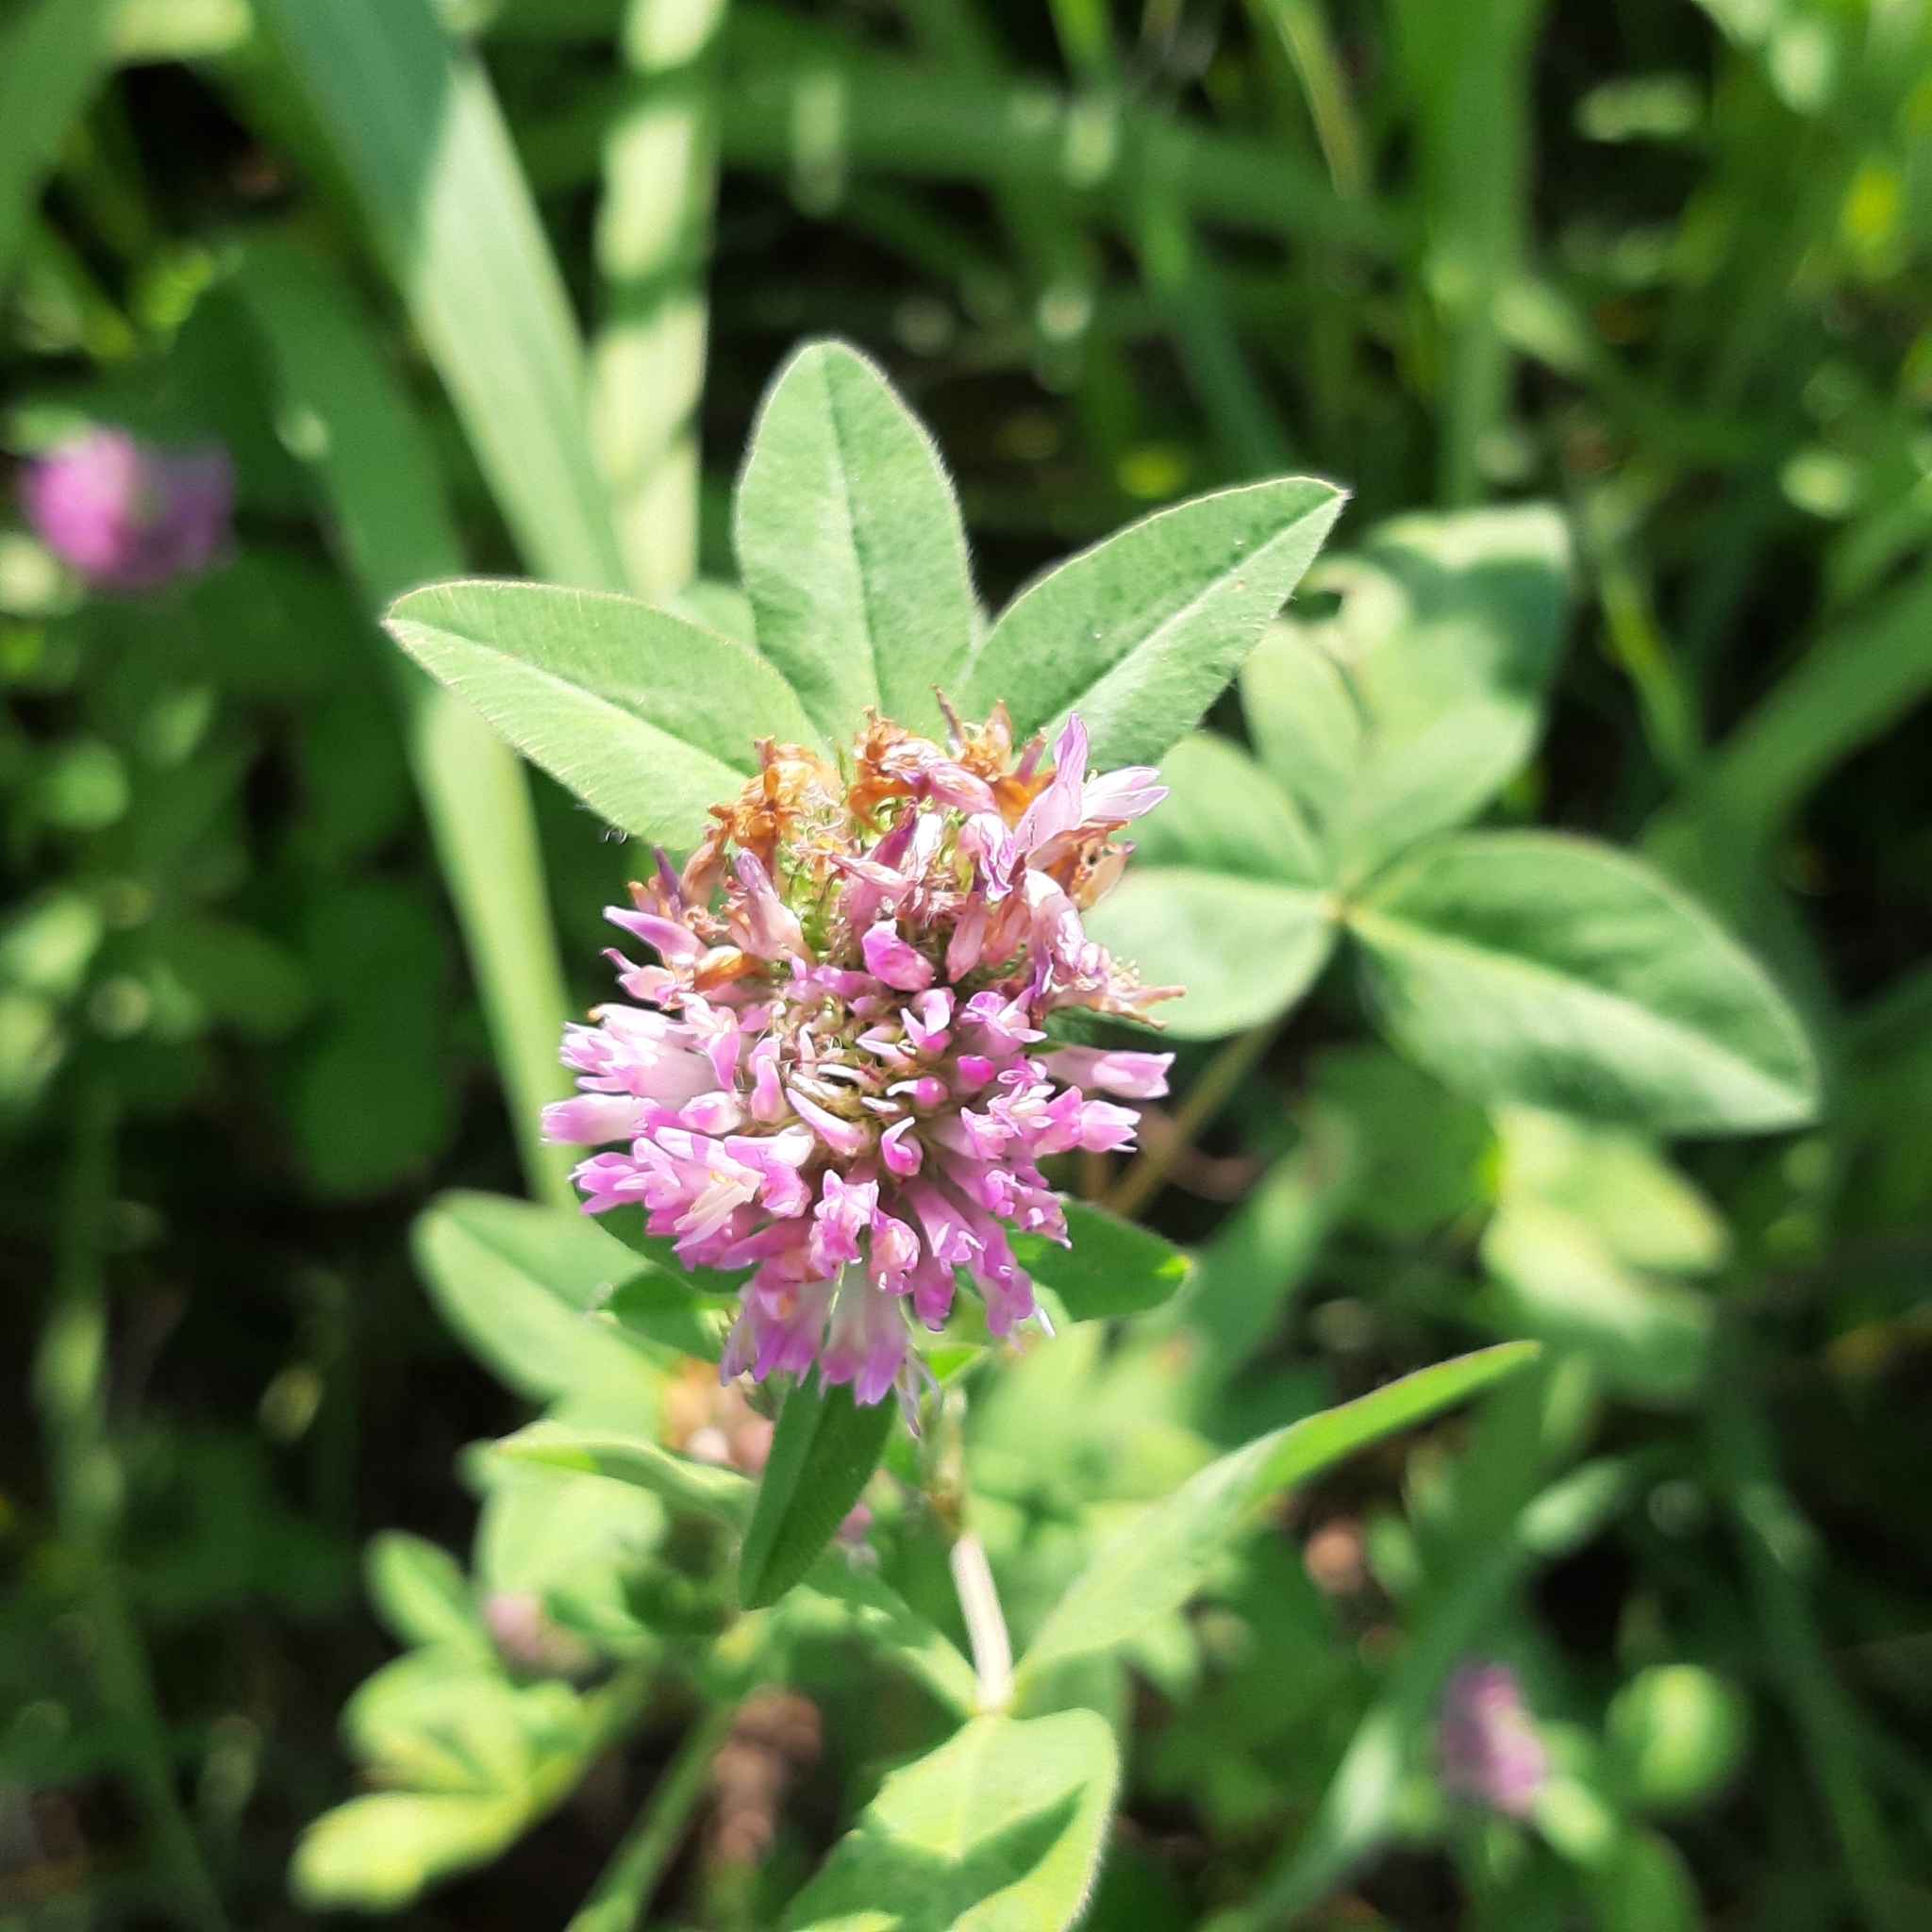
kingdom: Plantae
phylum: Tracheophyta
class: Magnoliopsida
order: Fabales
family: Fabaceae
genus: Trifolium
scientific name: Trifolium pratense
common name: Red clover
